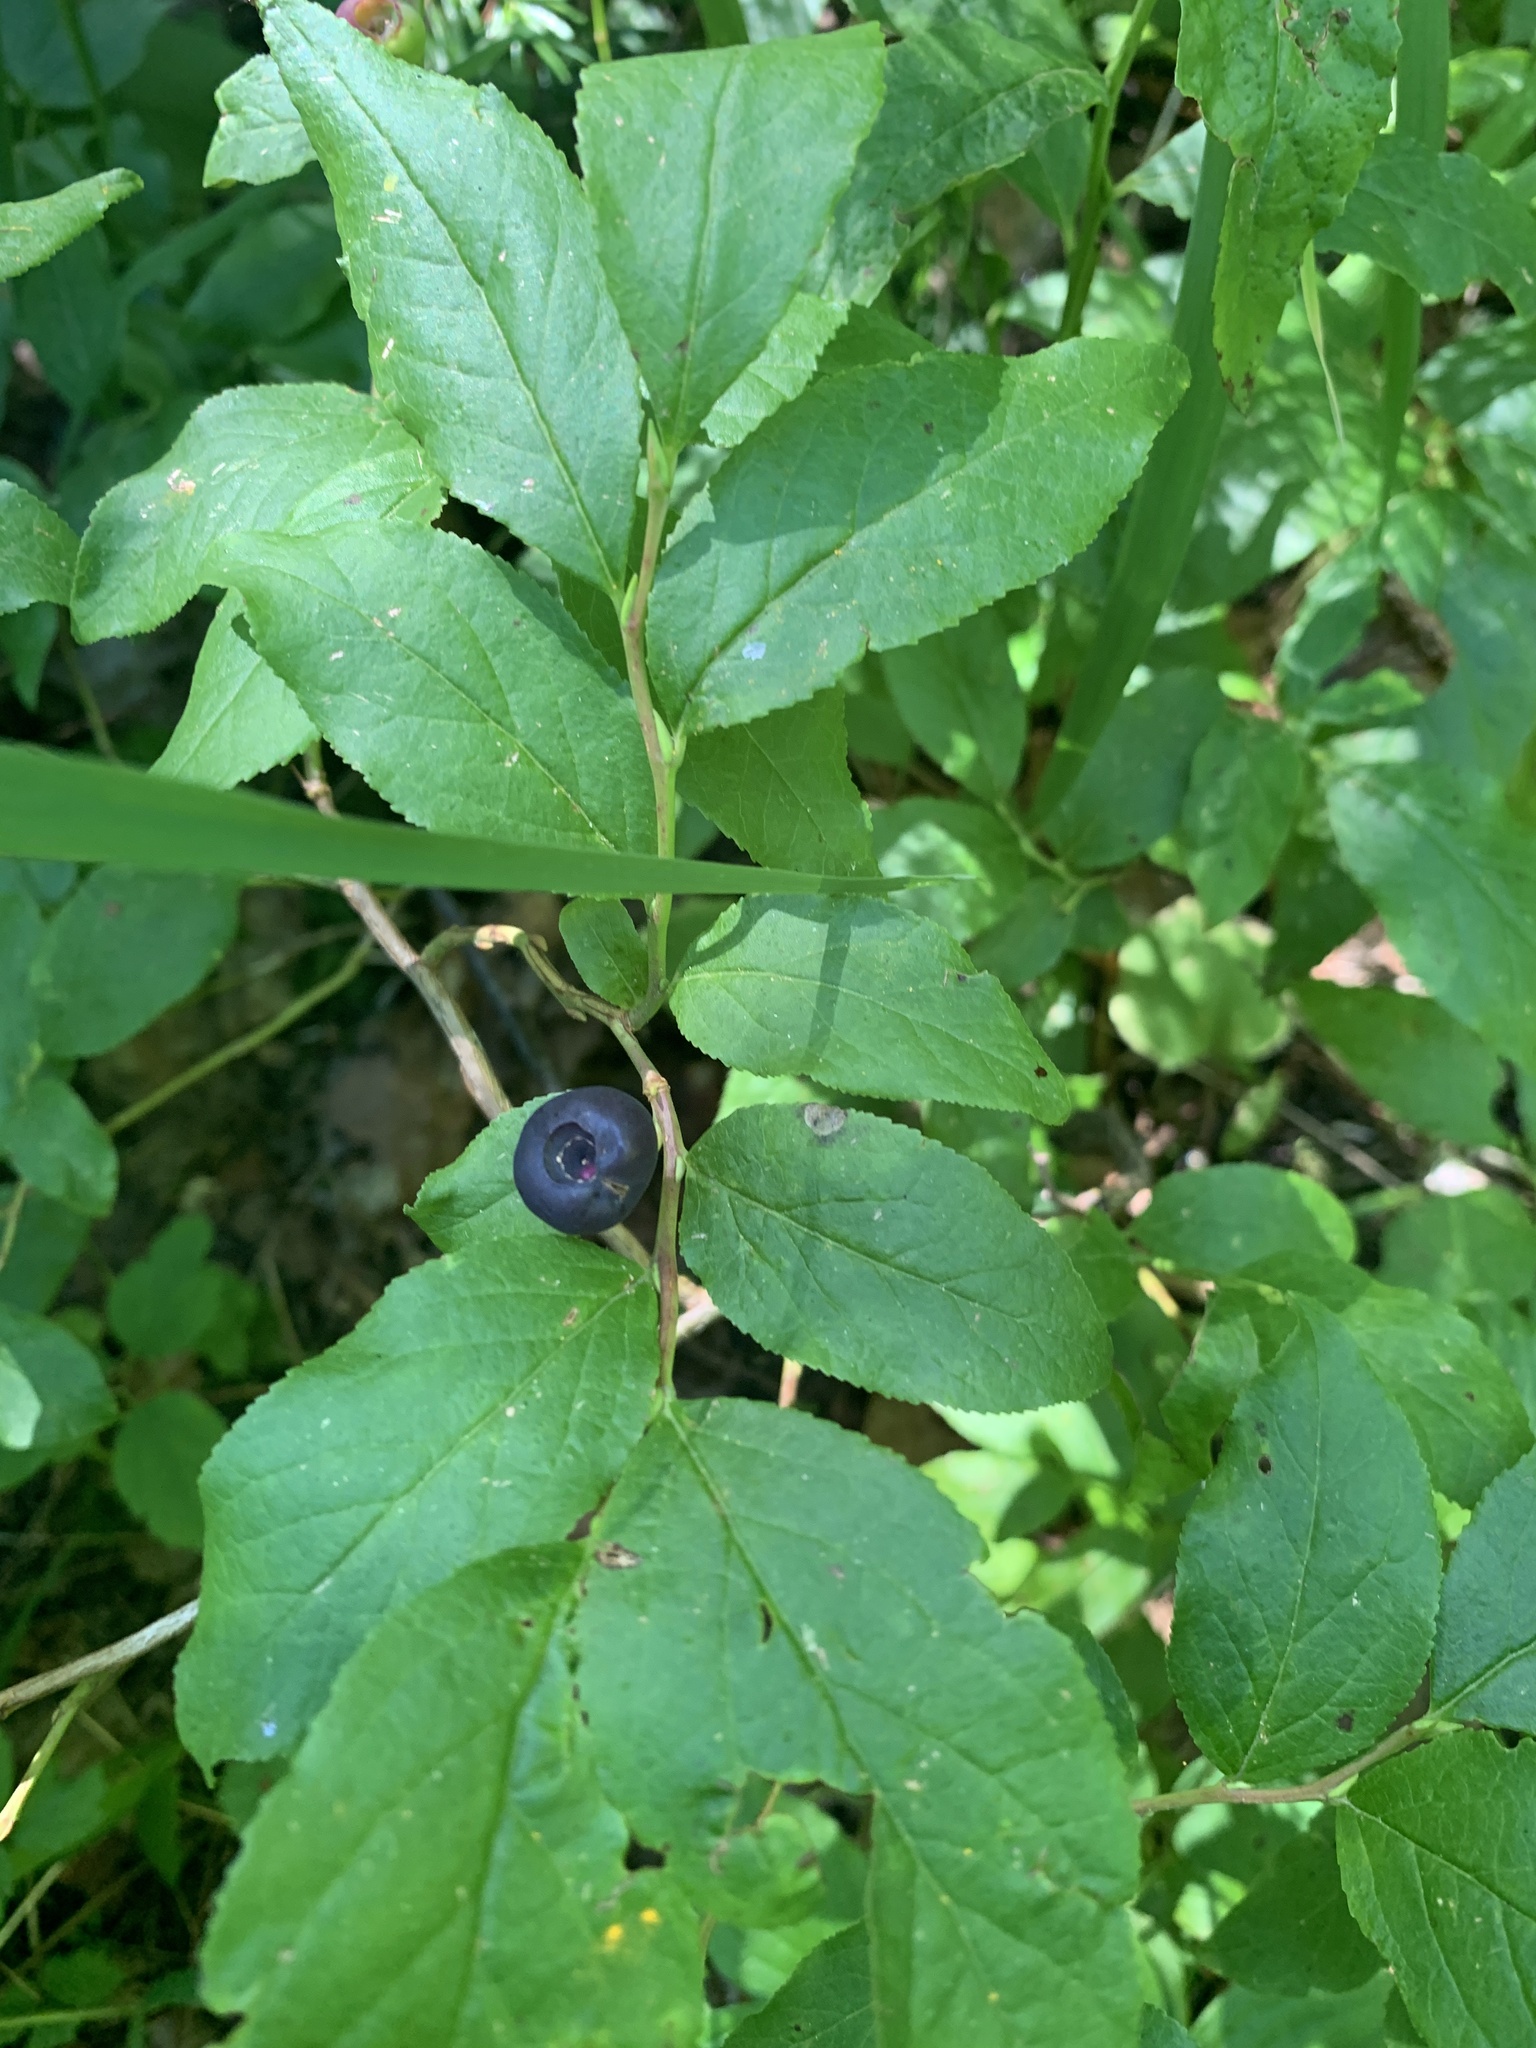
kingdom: Plantae
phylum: Tracheophyta
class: Magnoliopsida
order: Ericales
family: Ericaceae
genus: Vaccinium
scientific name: Vaccinium membranaceum
